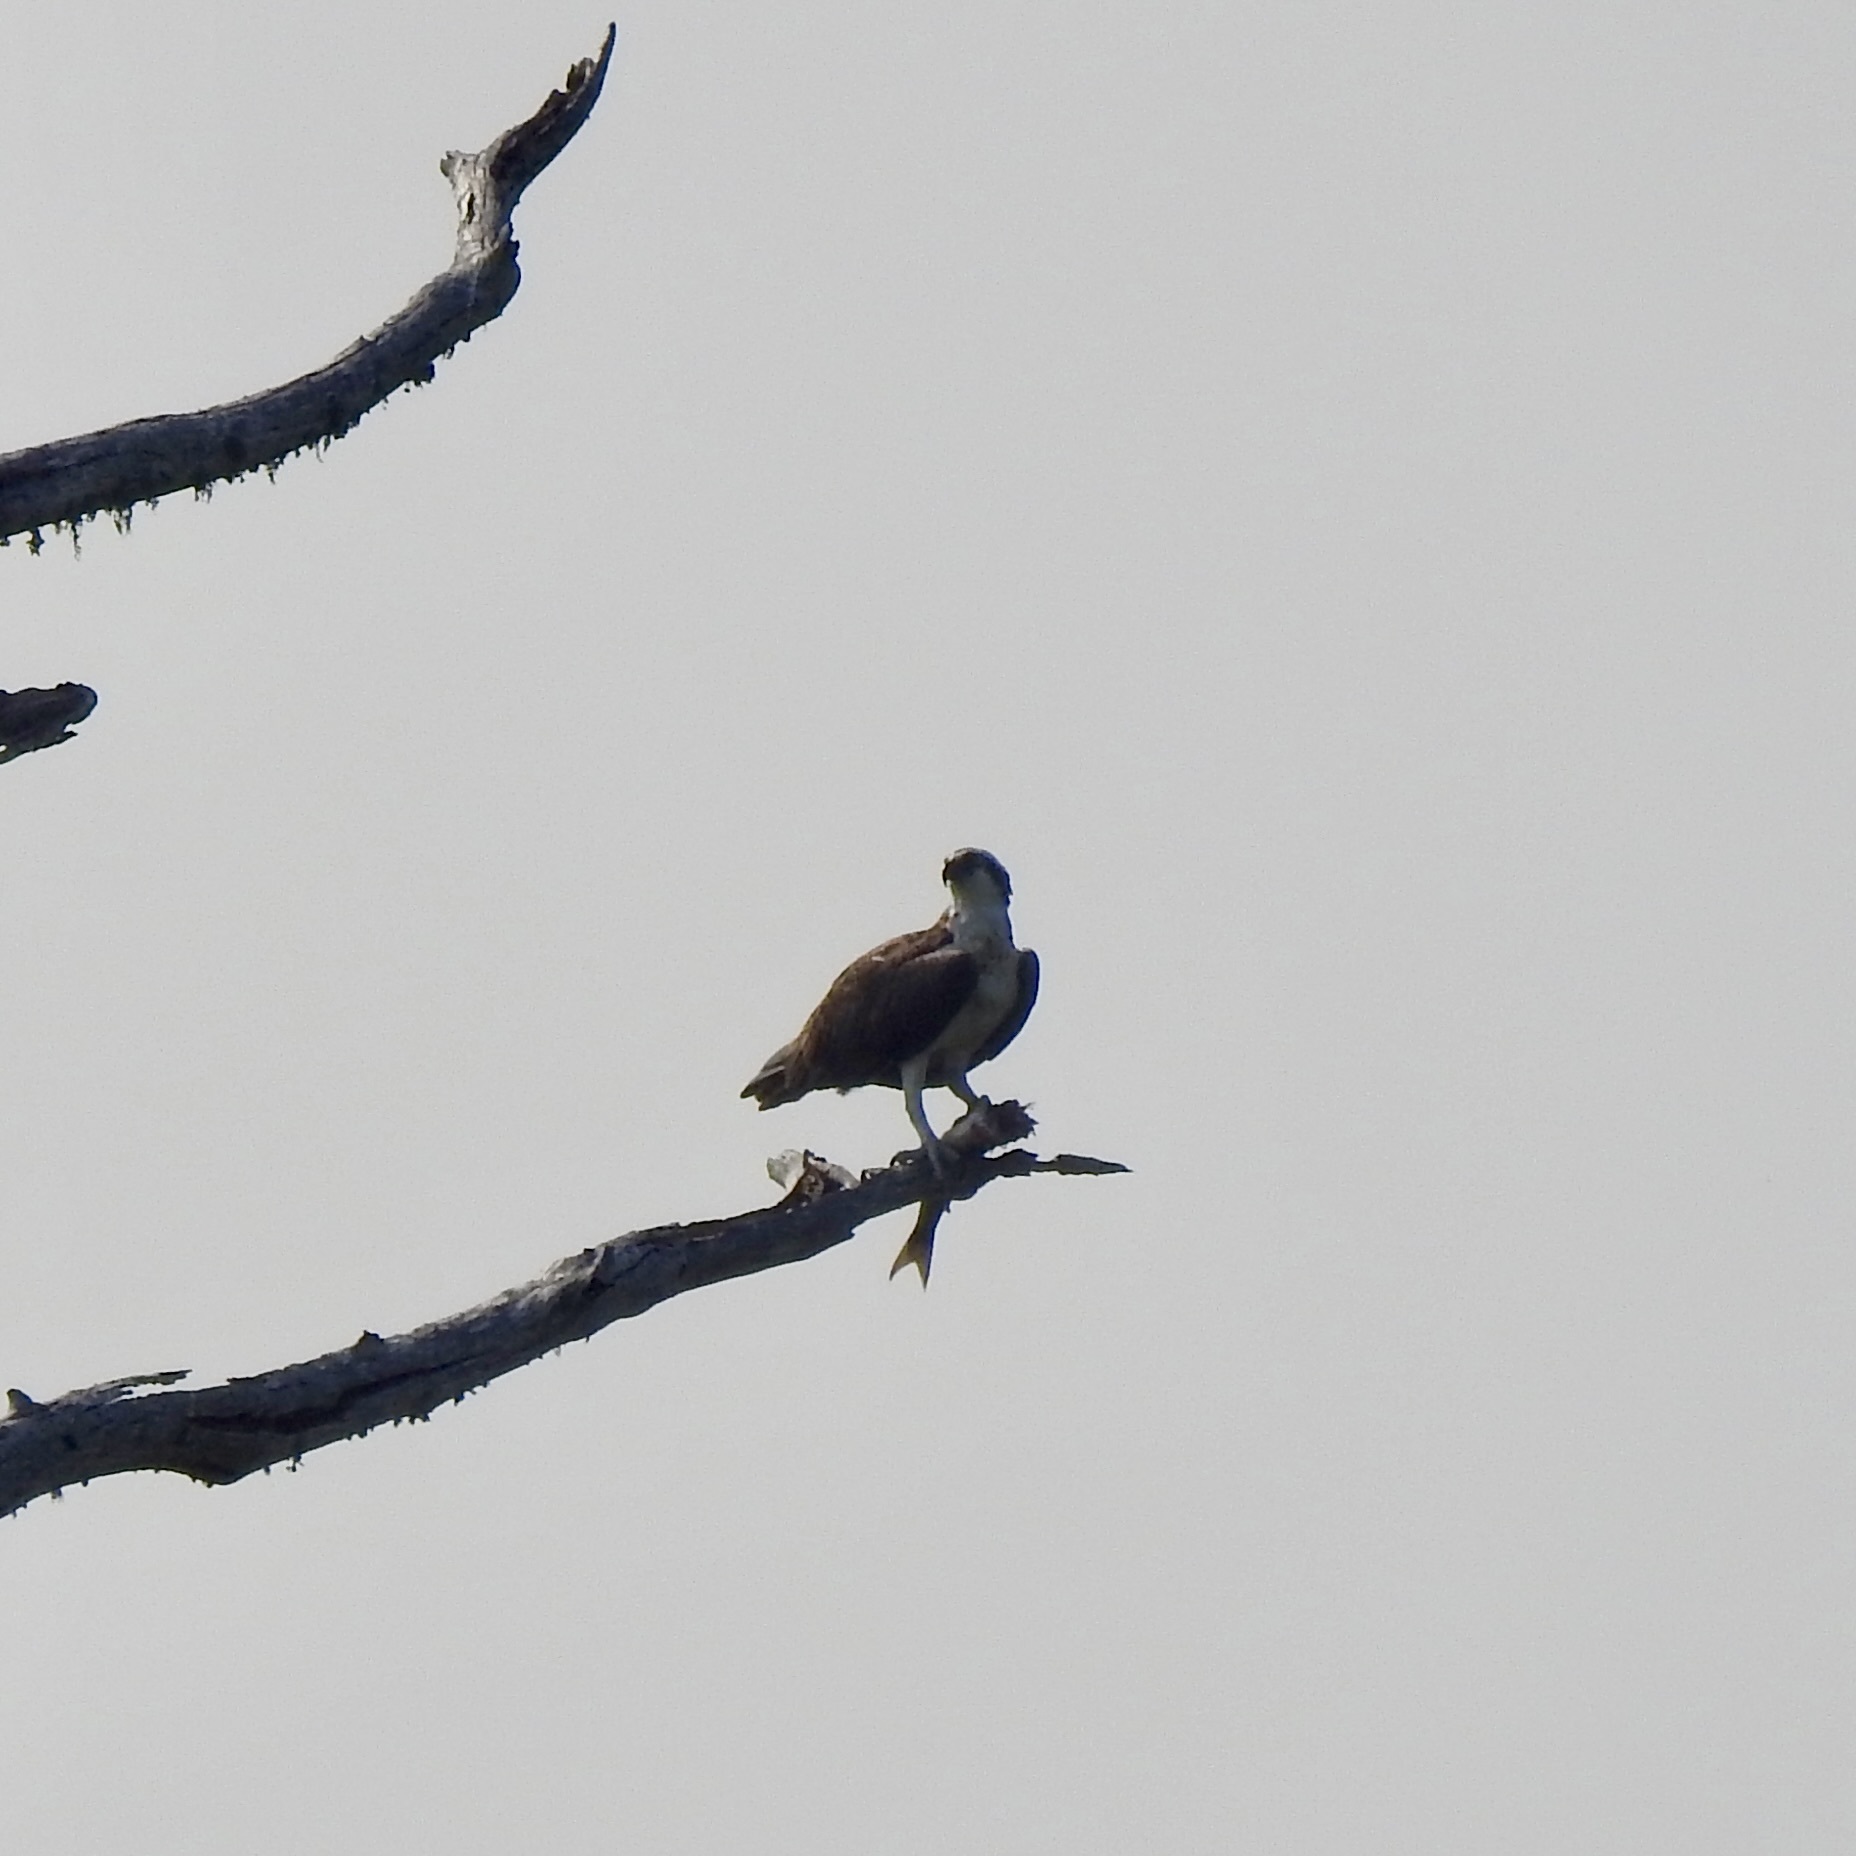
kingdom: Animalia
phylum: Chordata
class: Aves
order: Accipitriformes
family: Pandionidae
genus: Pandion
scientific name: Pandion haliaetus
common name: Osprey
